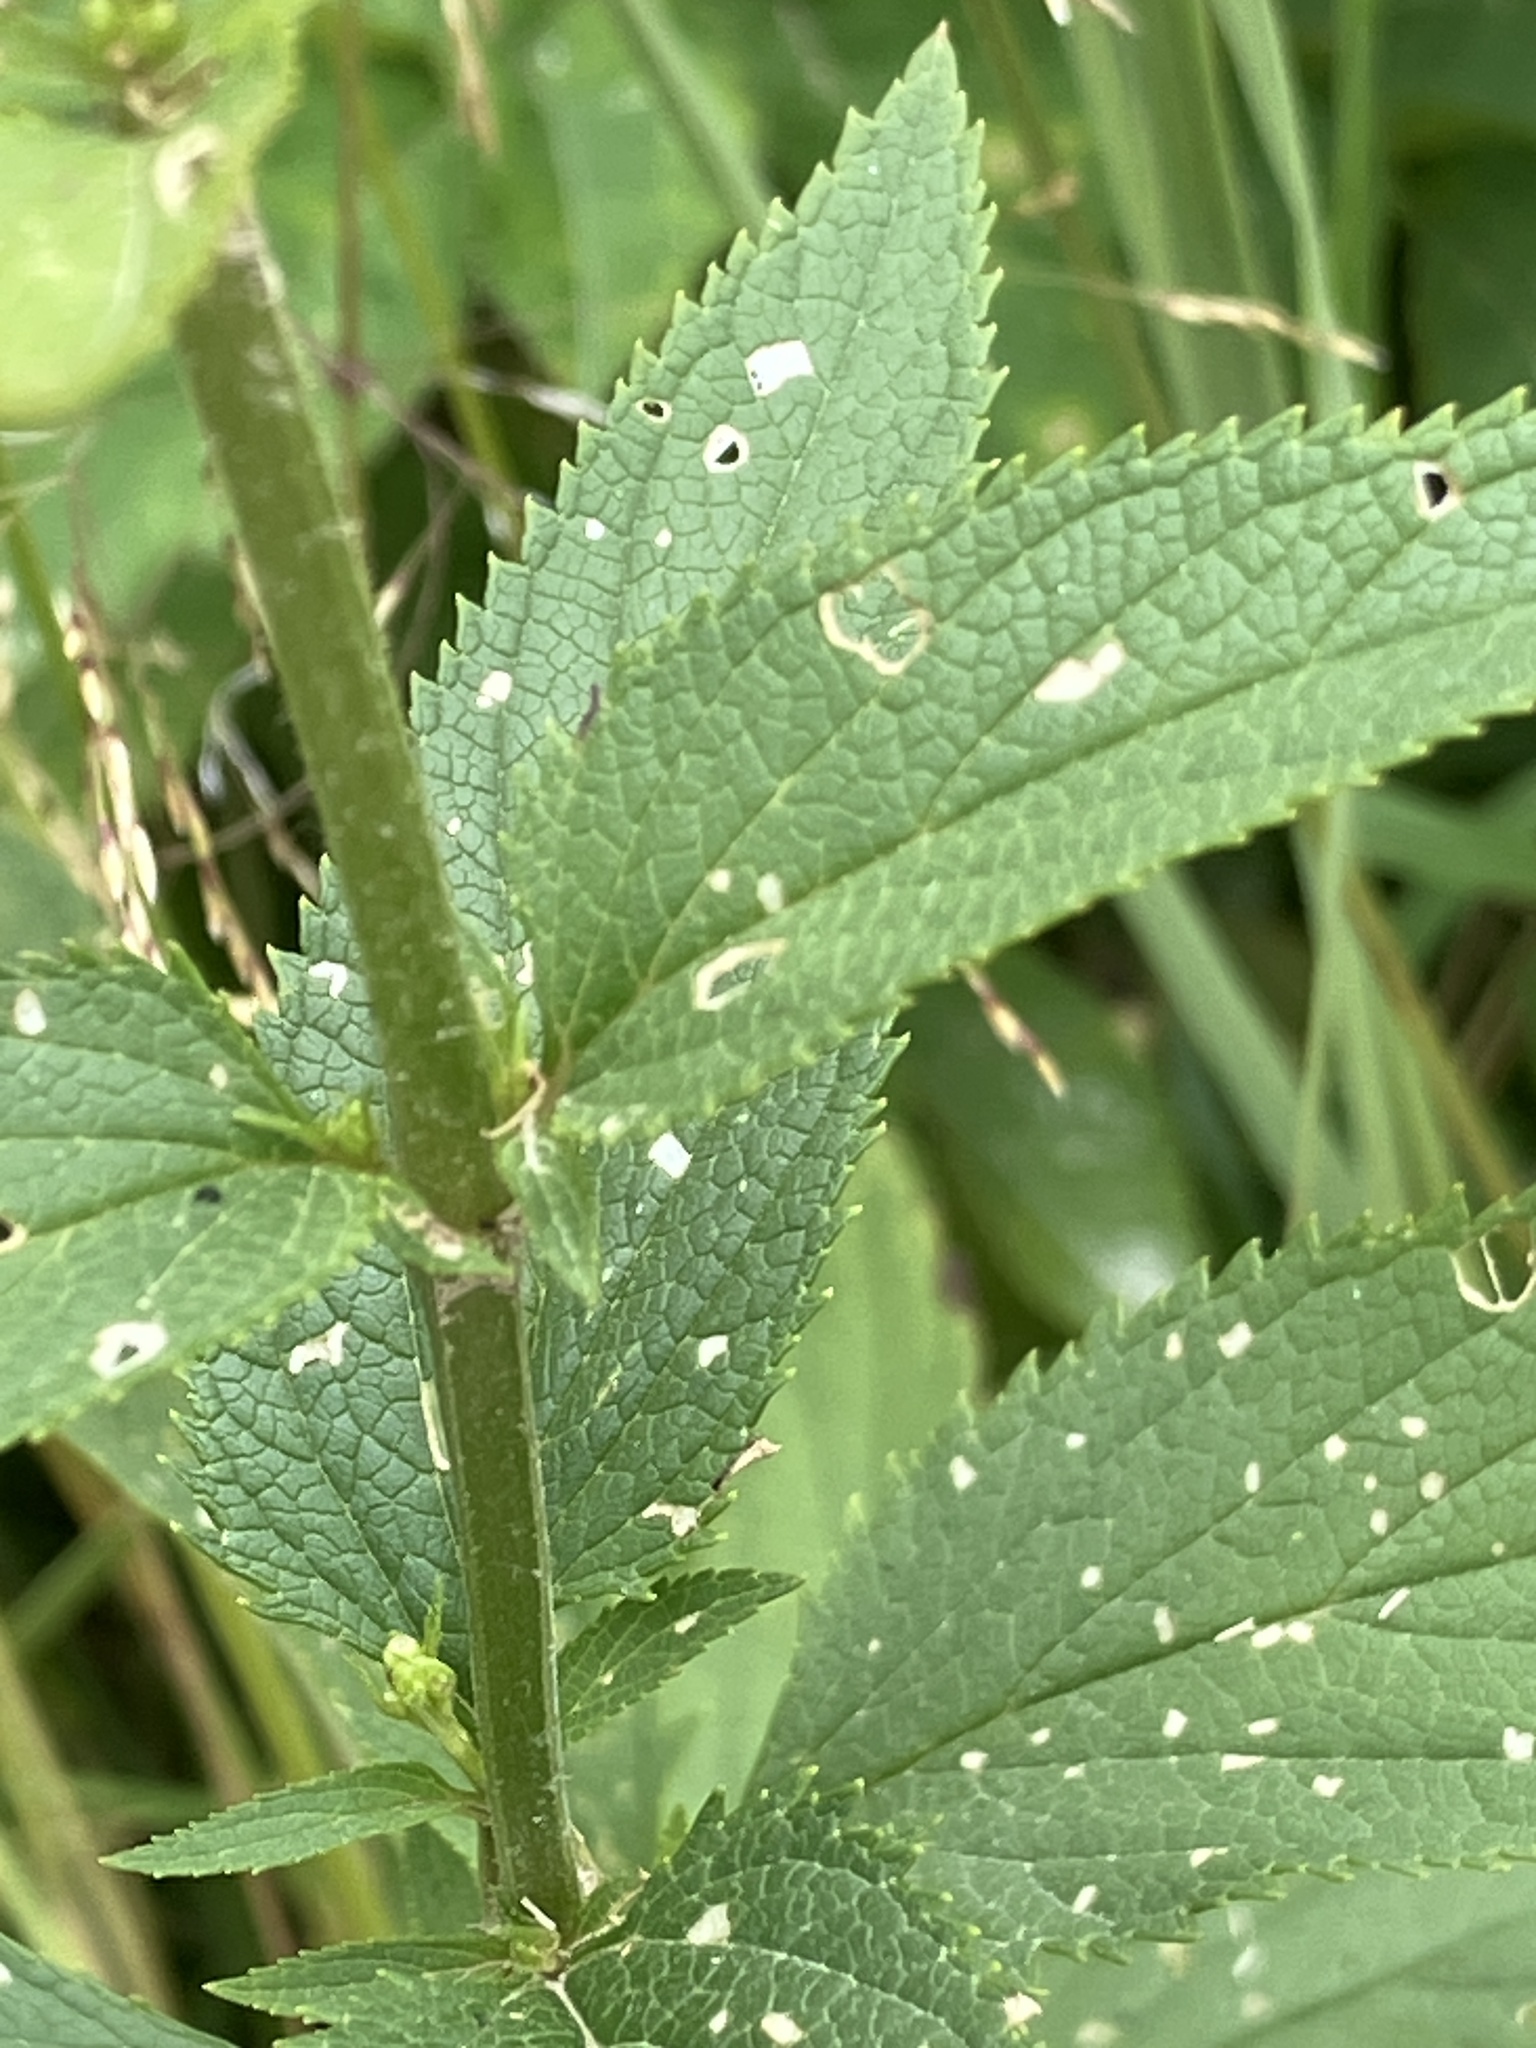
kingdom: Plantae
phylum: Tracheophyta
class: Magnoliopsida
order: Lamiales
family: Scrophulariaceae
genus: Scrophularia
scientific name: Scrophularia nodosa
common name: Common figwort
